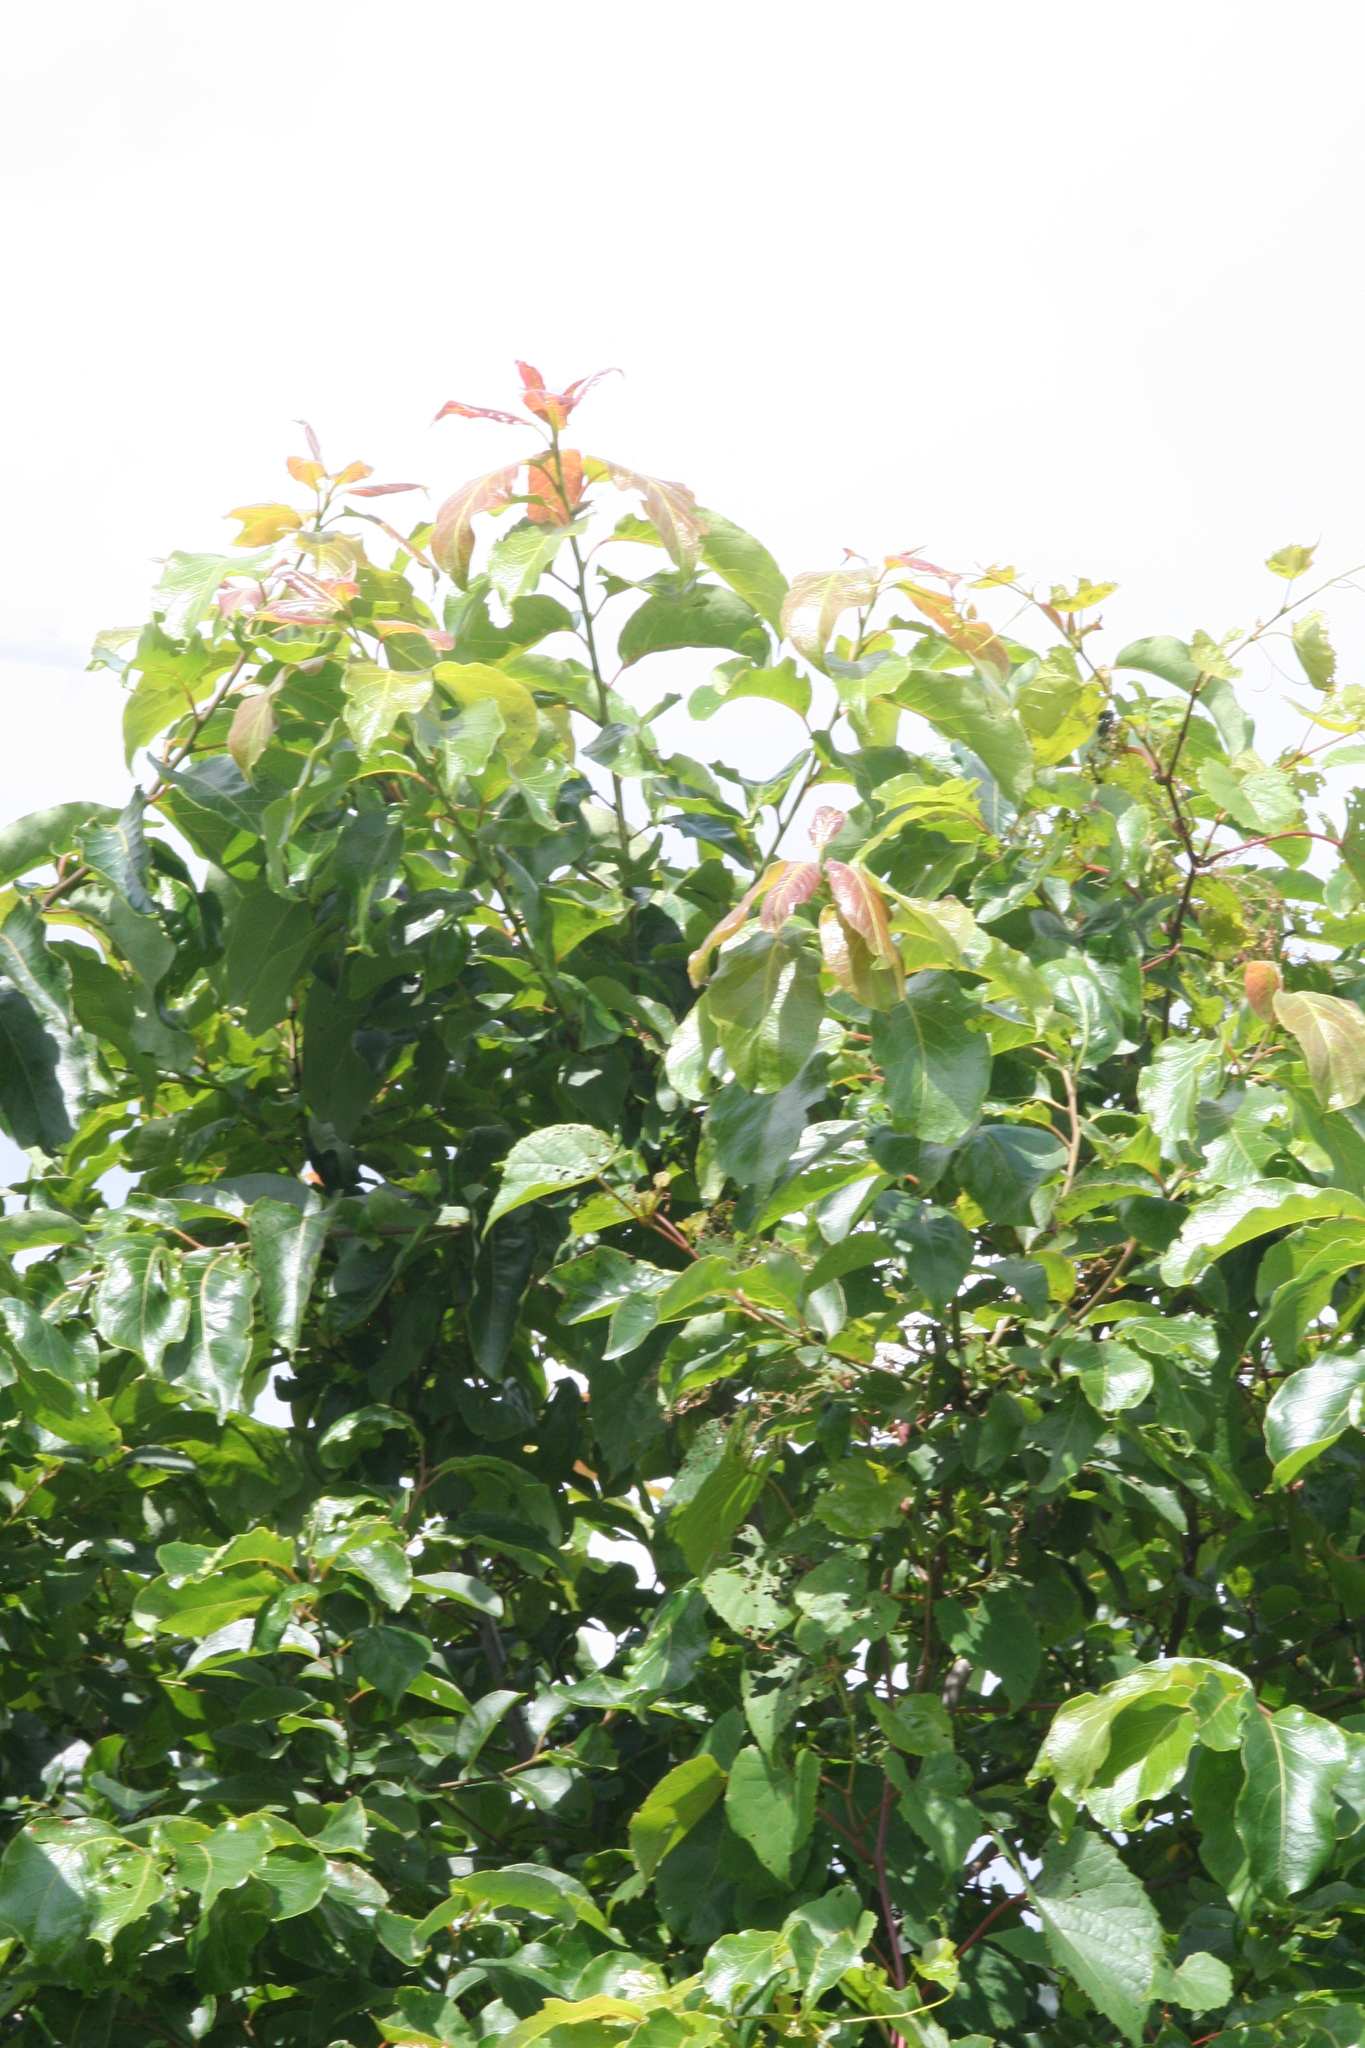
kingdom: Plantae
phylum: Tracheophyta
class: Magnoliopsida
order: Ericales
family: Ebenaceae
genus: Diospyros
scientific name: Diospyros virginiana
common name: Persimmon
